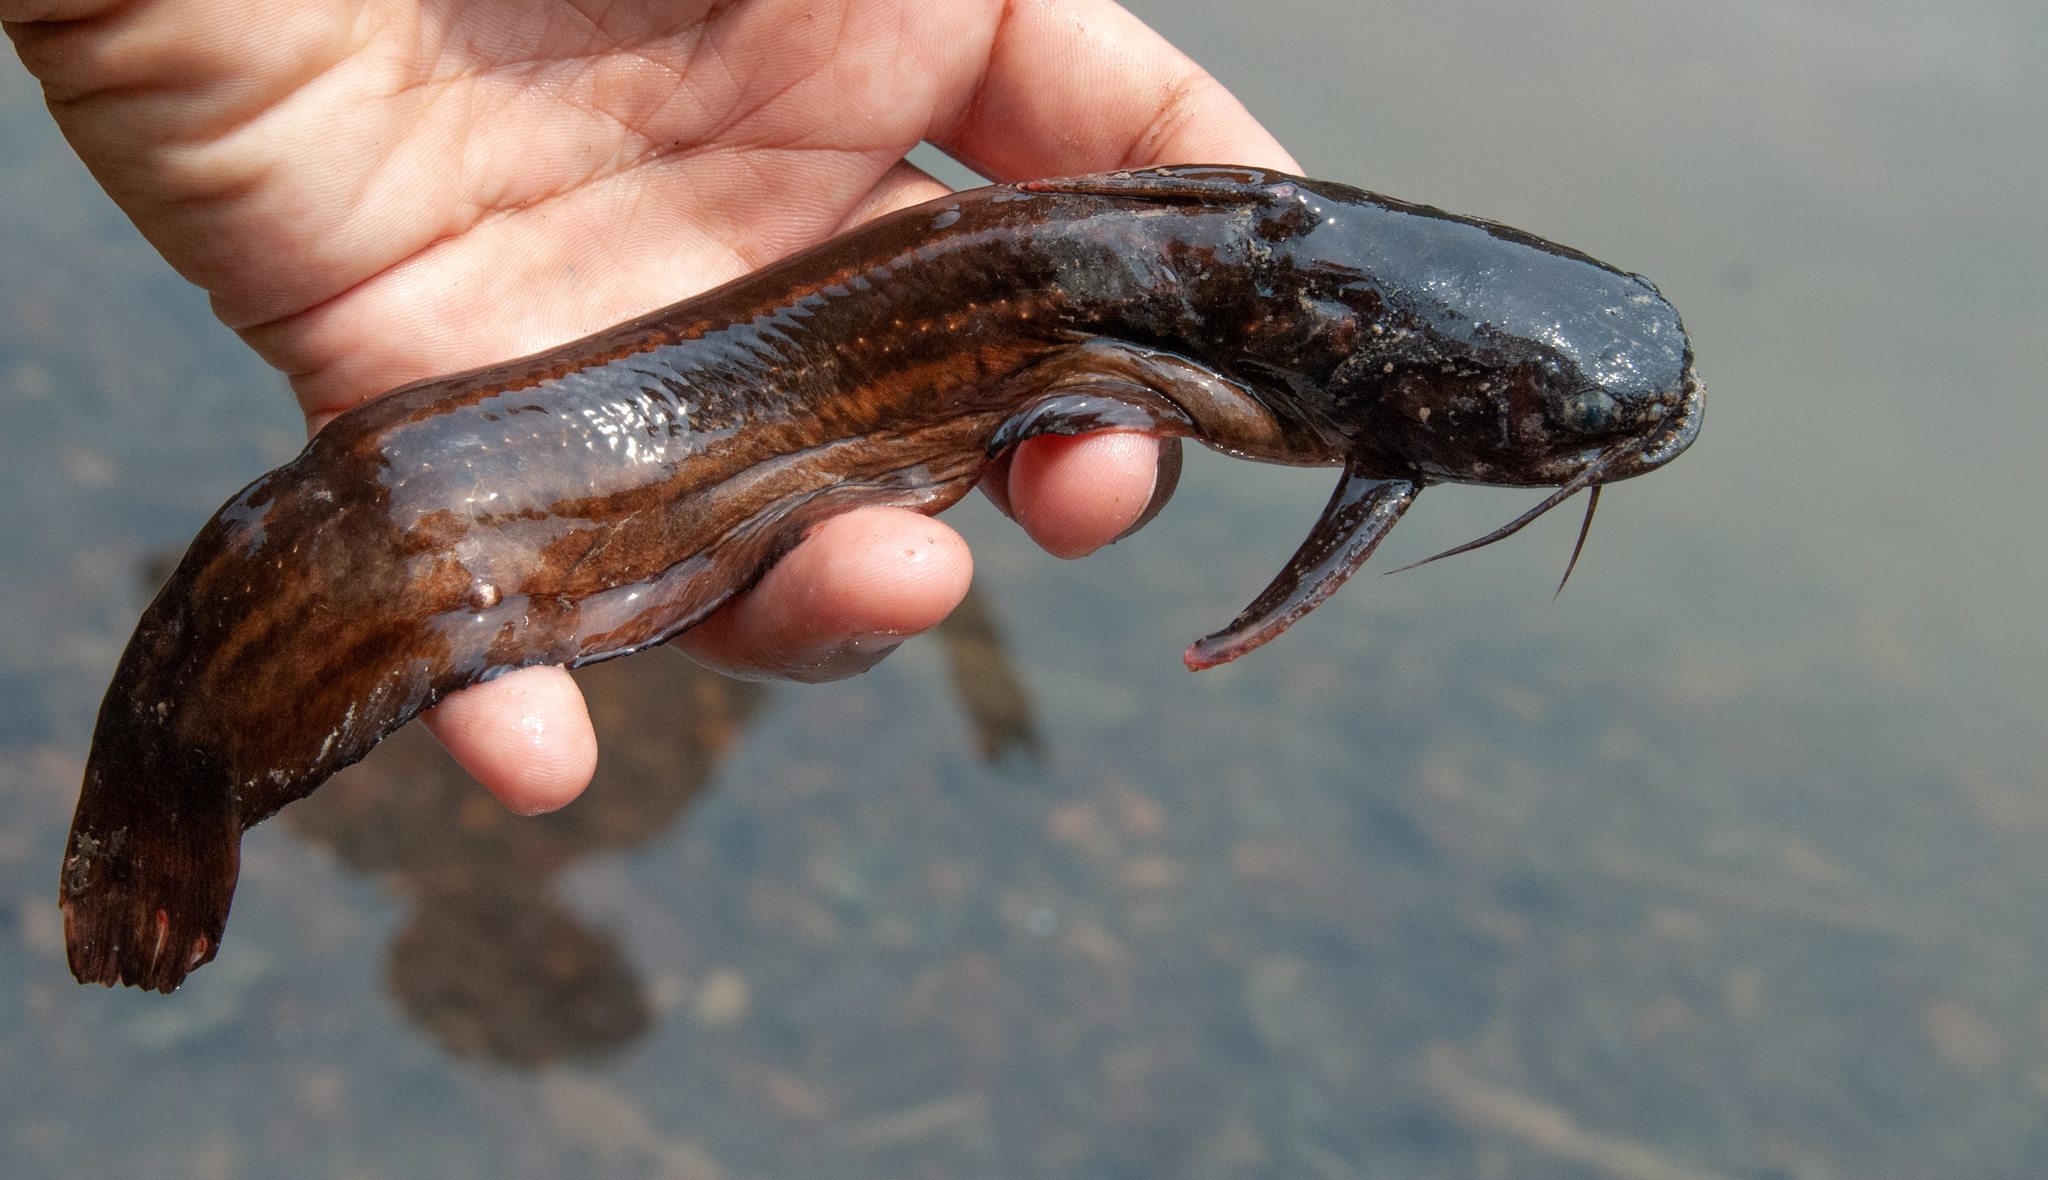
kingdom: Animalia
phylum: Chordata
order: Siluriformes
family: Auchenipteridae
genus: Trachelyopterichthys
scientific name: Trachelyopterichthys taeniatus
